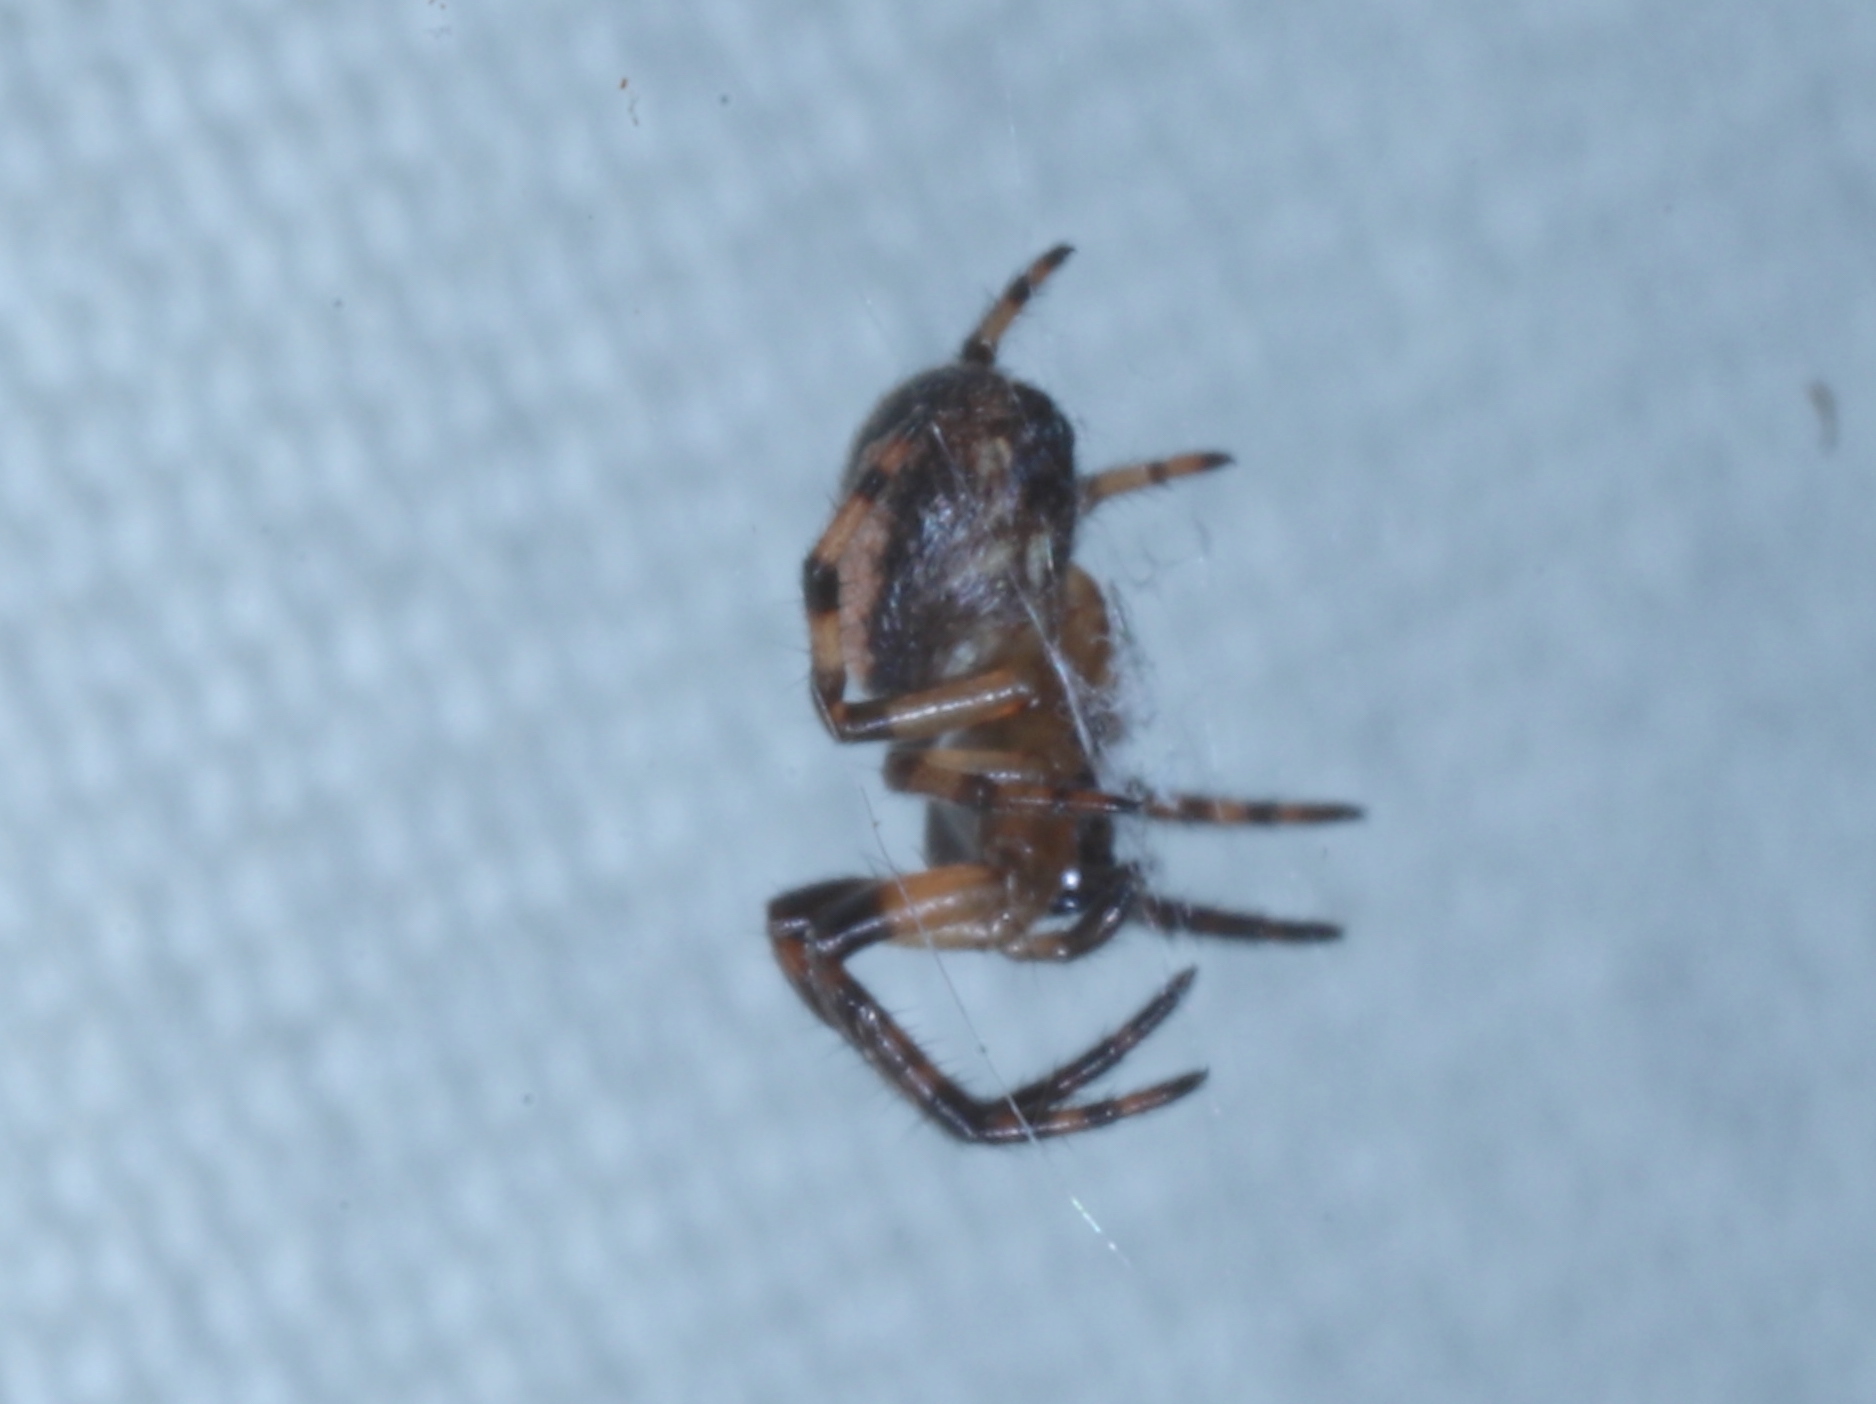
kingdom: Animalia
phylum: Arthropoda
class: Arachnida
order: Araneae
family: Araneidae
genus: Larinioides
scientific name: Larinioides cornutus
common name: Furrow orbweaver
